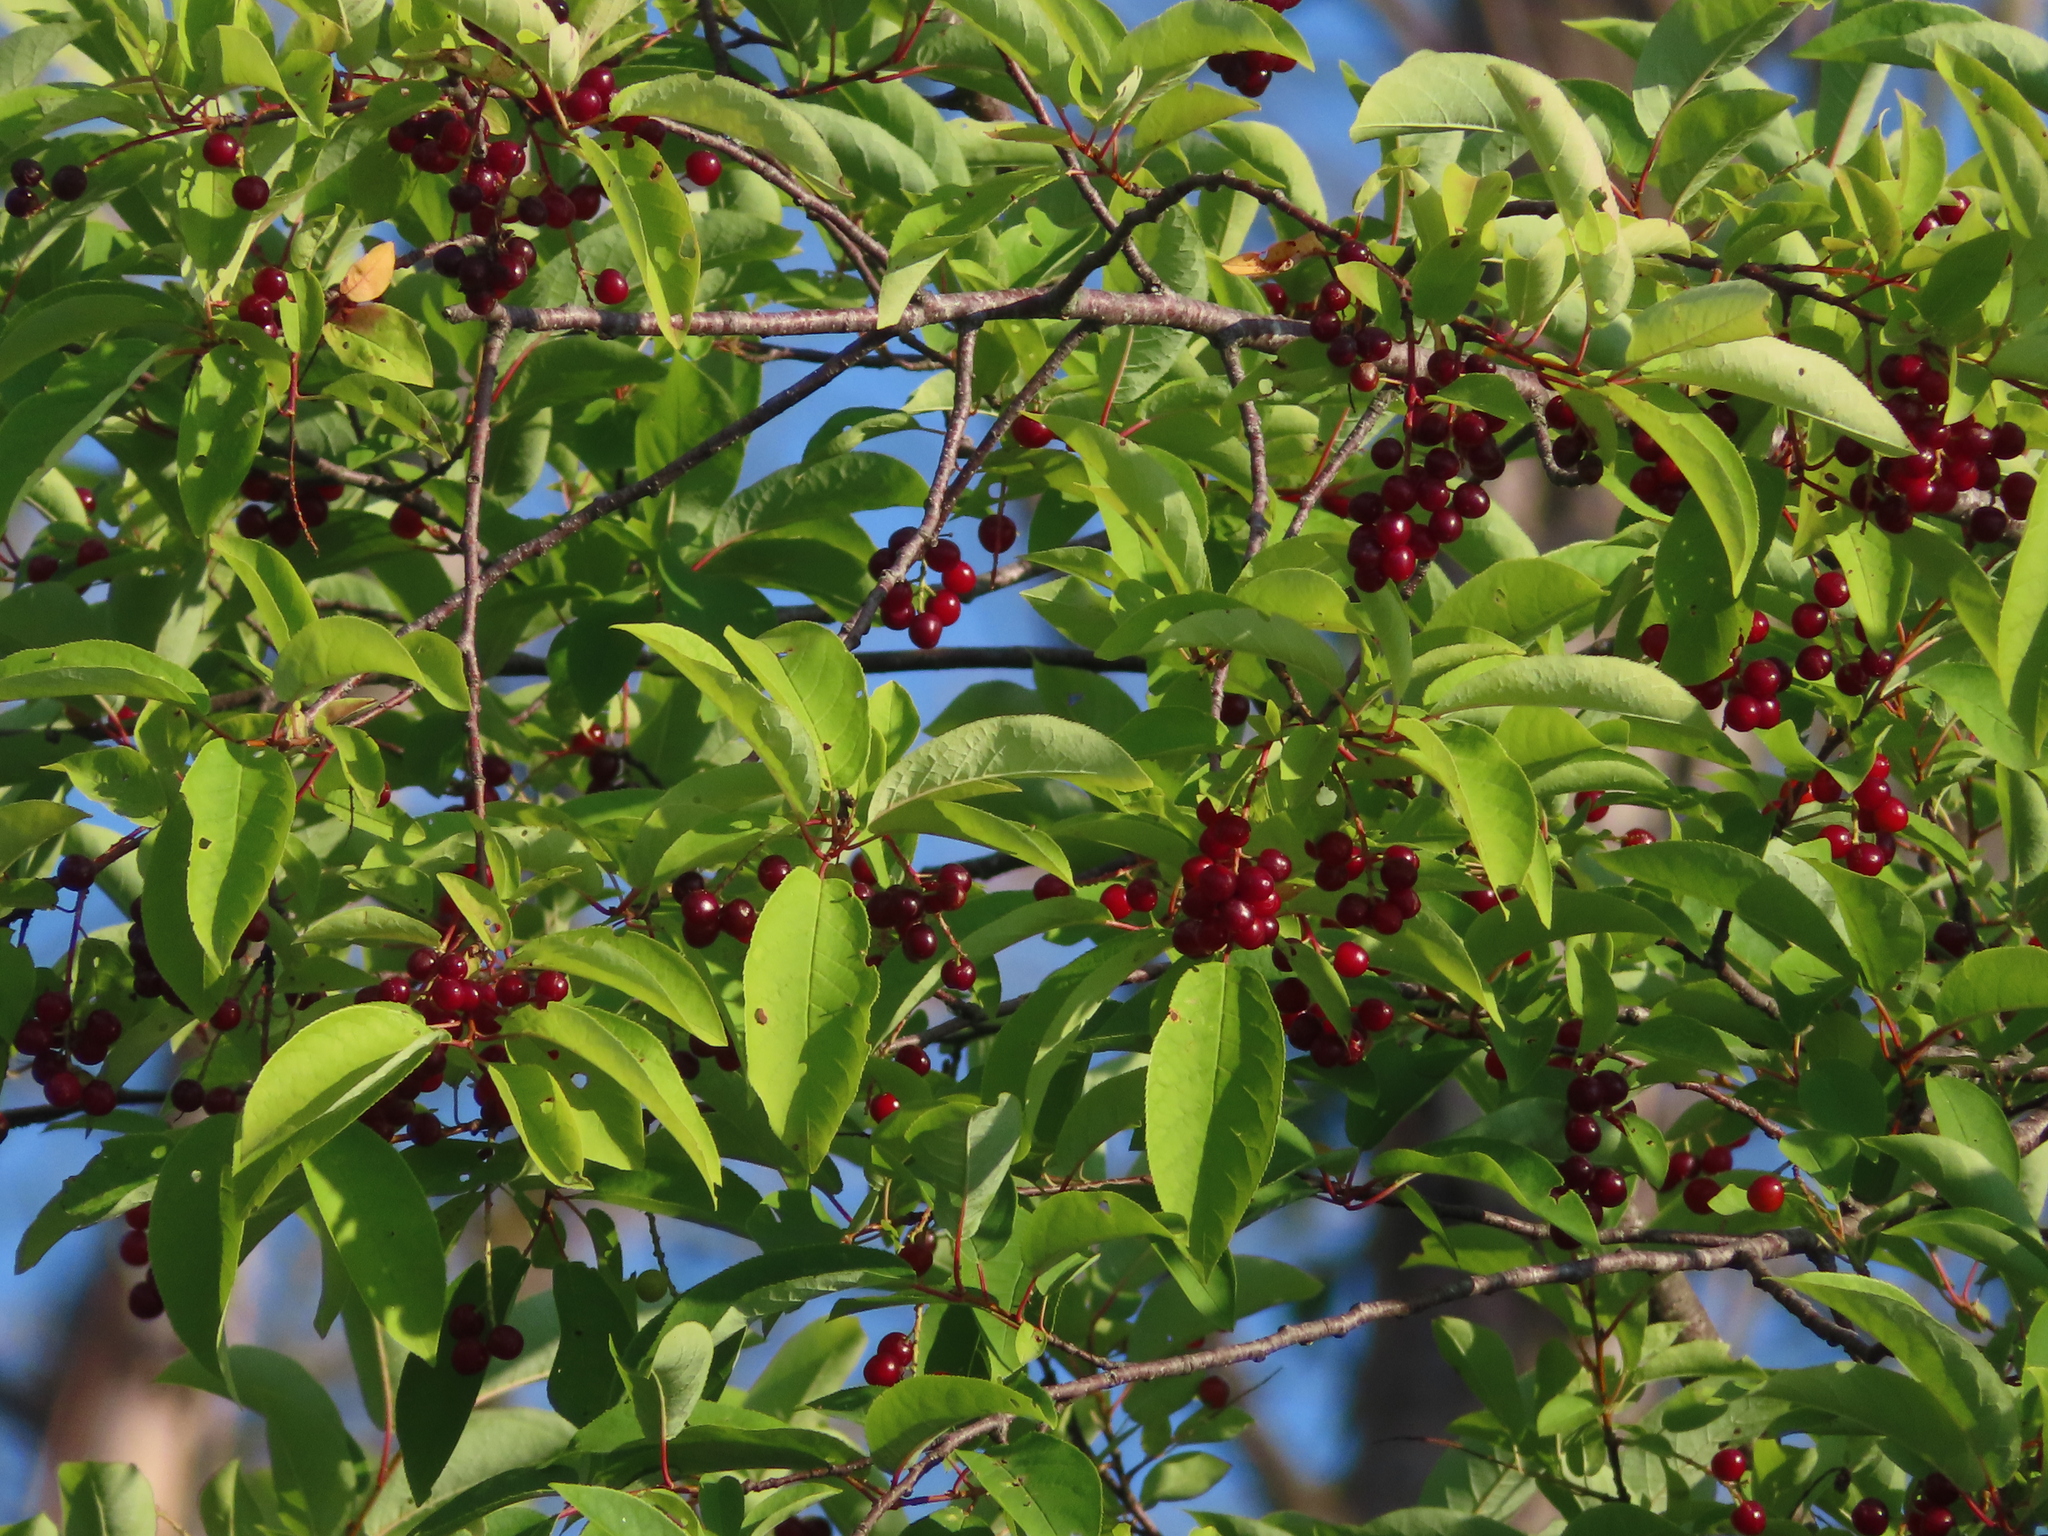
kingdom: Plantae
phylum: Tracheophyta
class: Magnoliopsida
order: Rosales
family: Rosaceae
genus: Prunus
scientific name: Prunus virginiana
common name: Chokecherry
